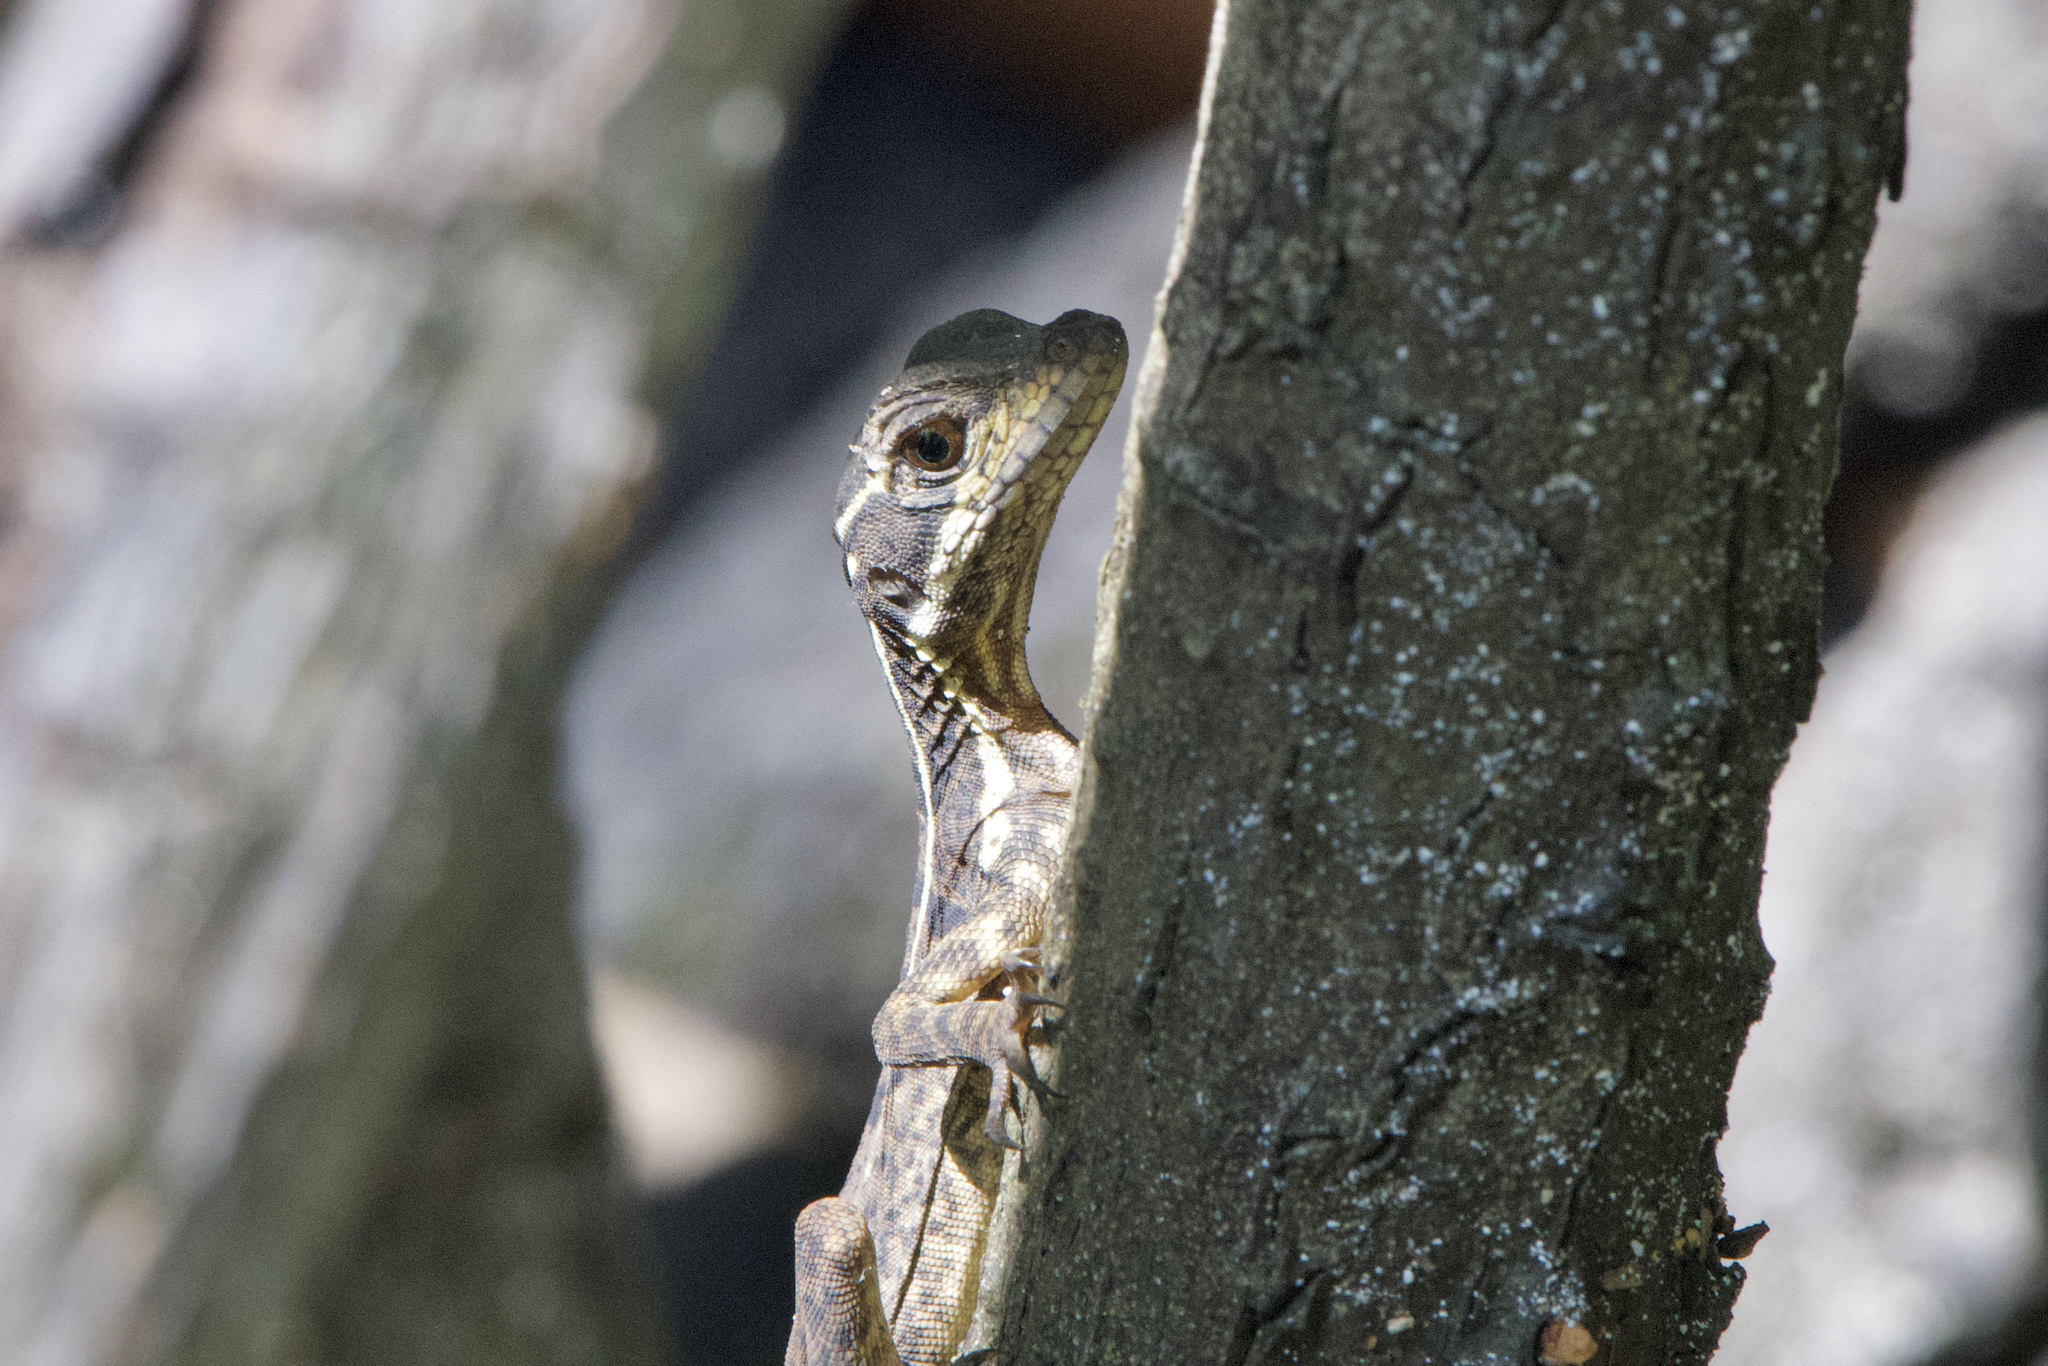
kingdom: Animalia
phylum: Chordata
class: Squamata
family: Corytophanidae
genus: Basiliscus
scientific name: Basiliscus basiliscus
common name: Common basilisk
